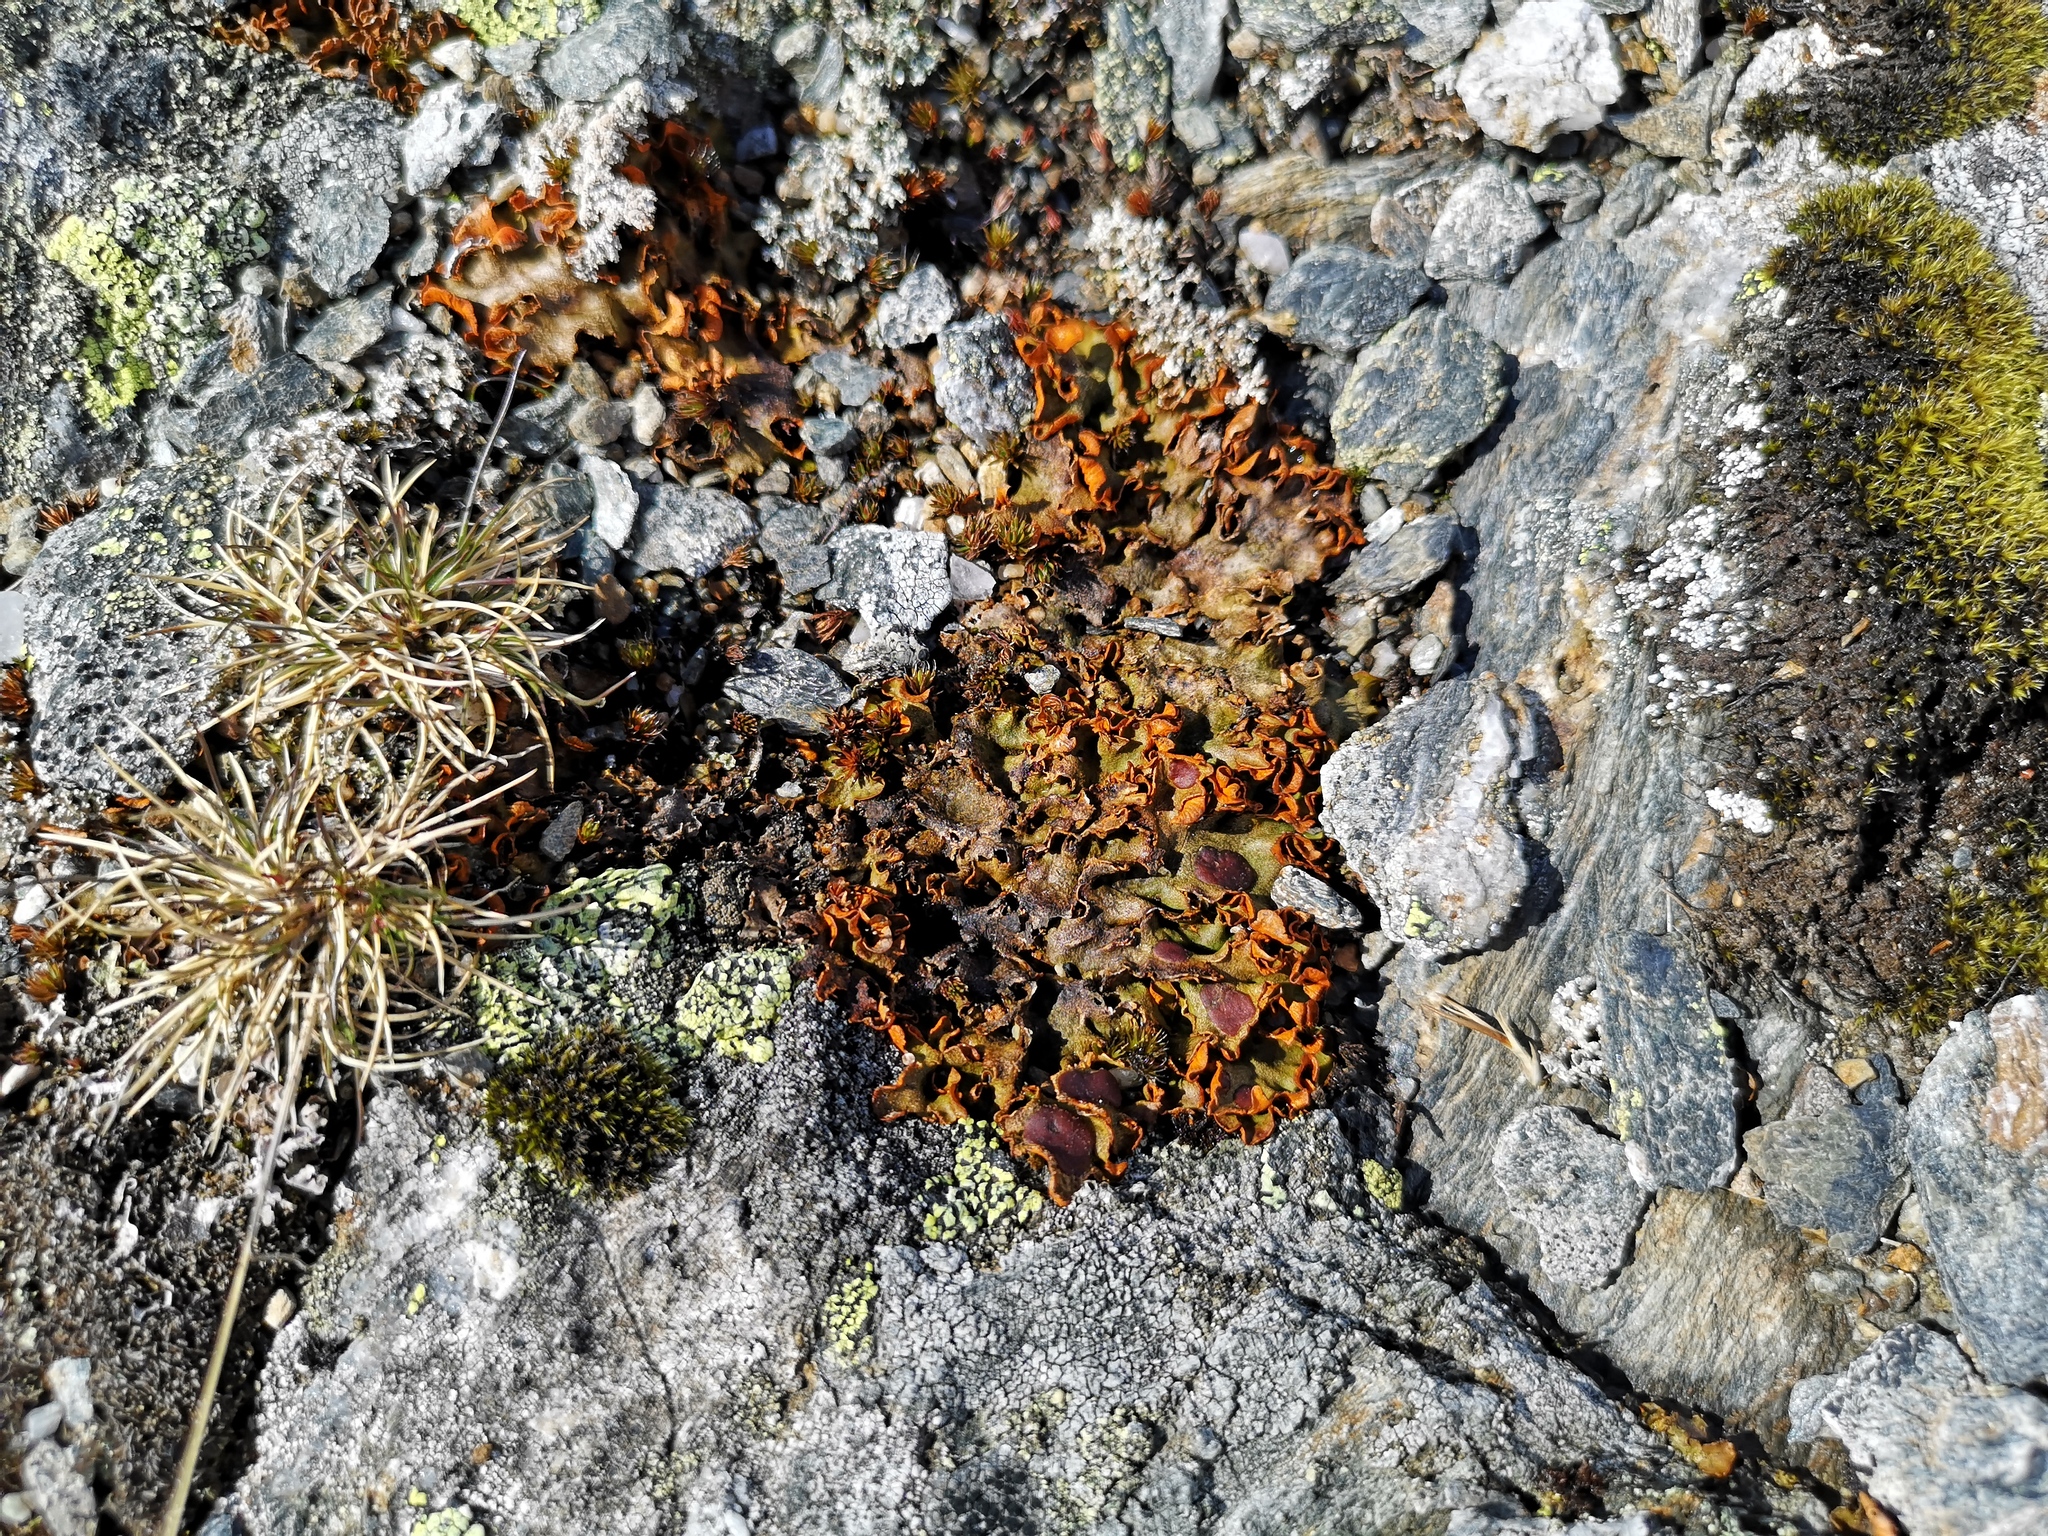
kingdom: Fungi
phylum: Ascomycota
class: Lecanoromycetes
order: Peltigerales
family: Peltigeraceae
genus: Solorina
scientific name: Solorina crocea
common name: Mountain saffron
